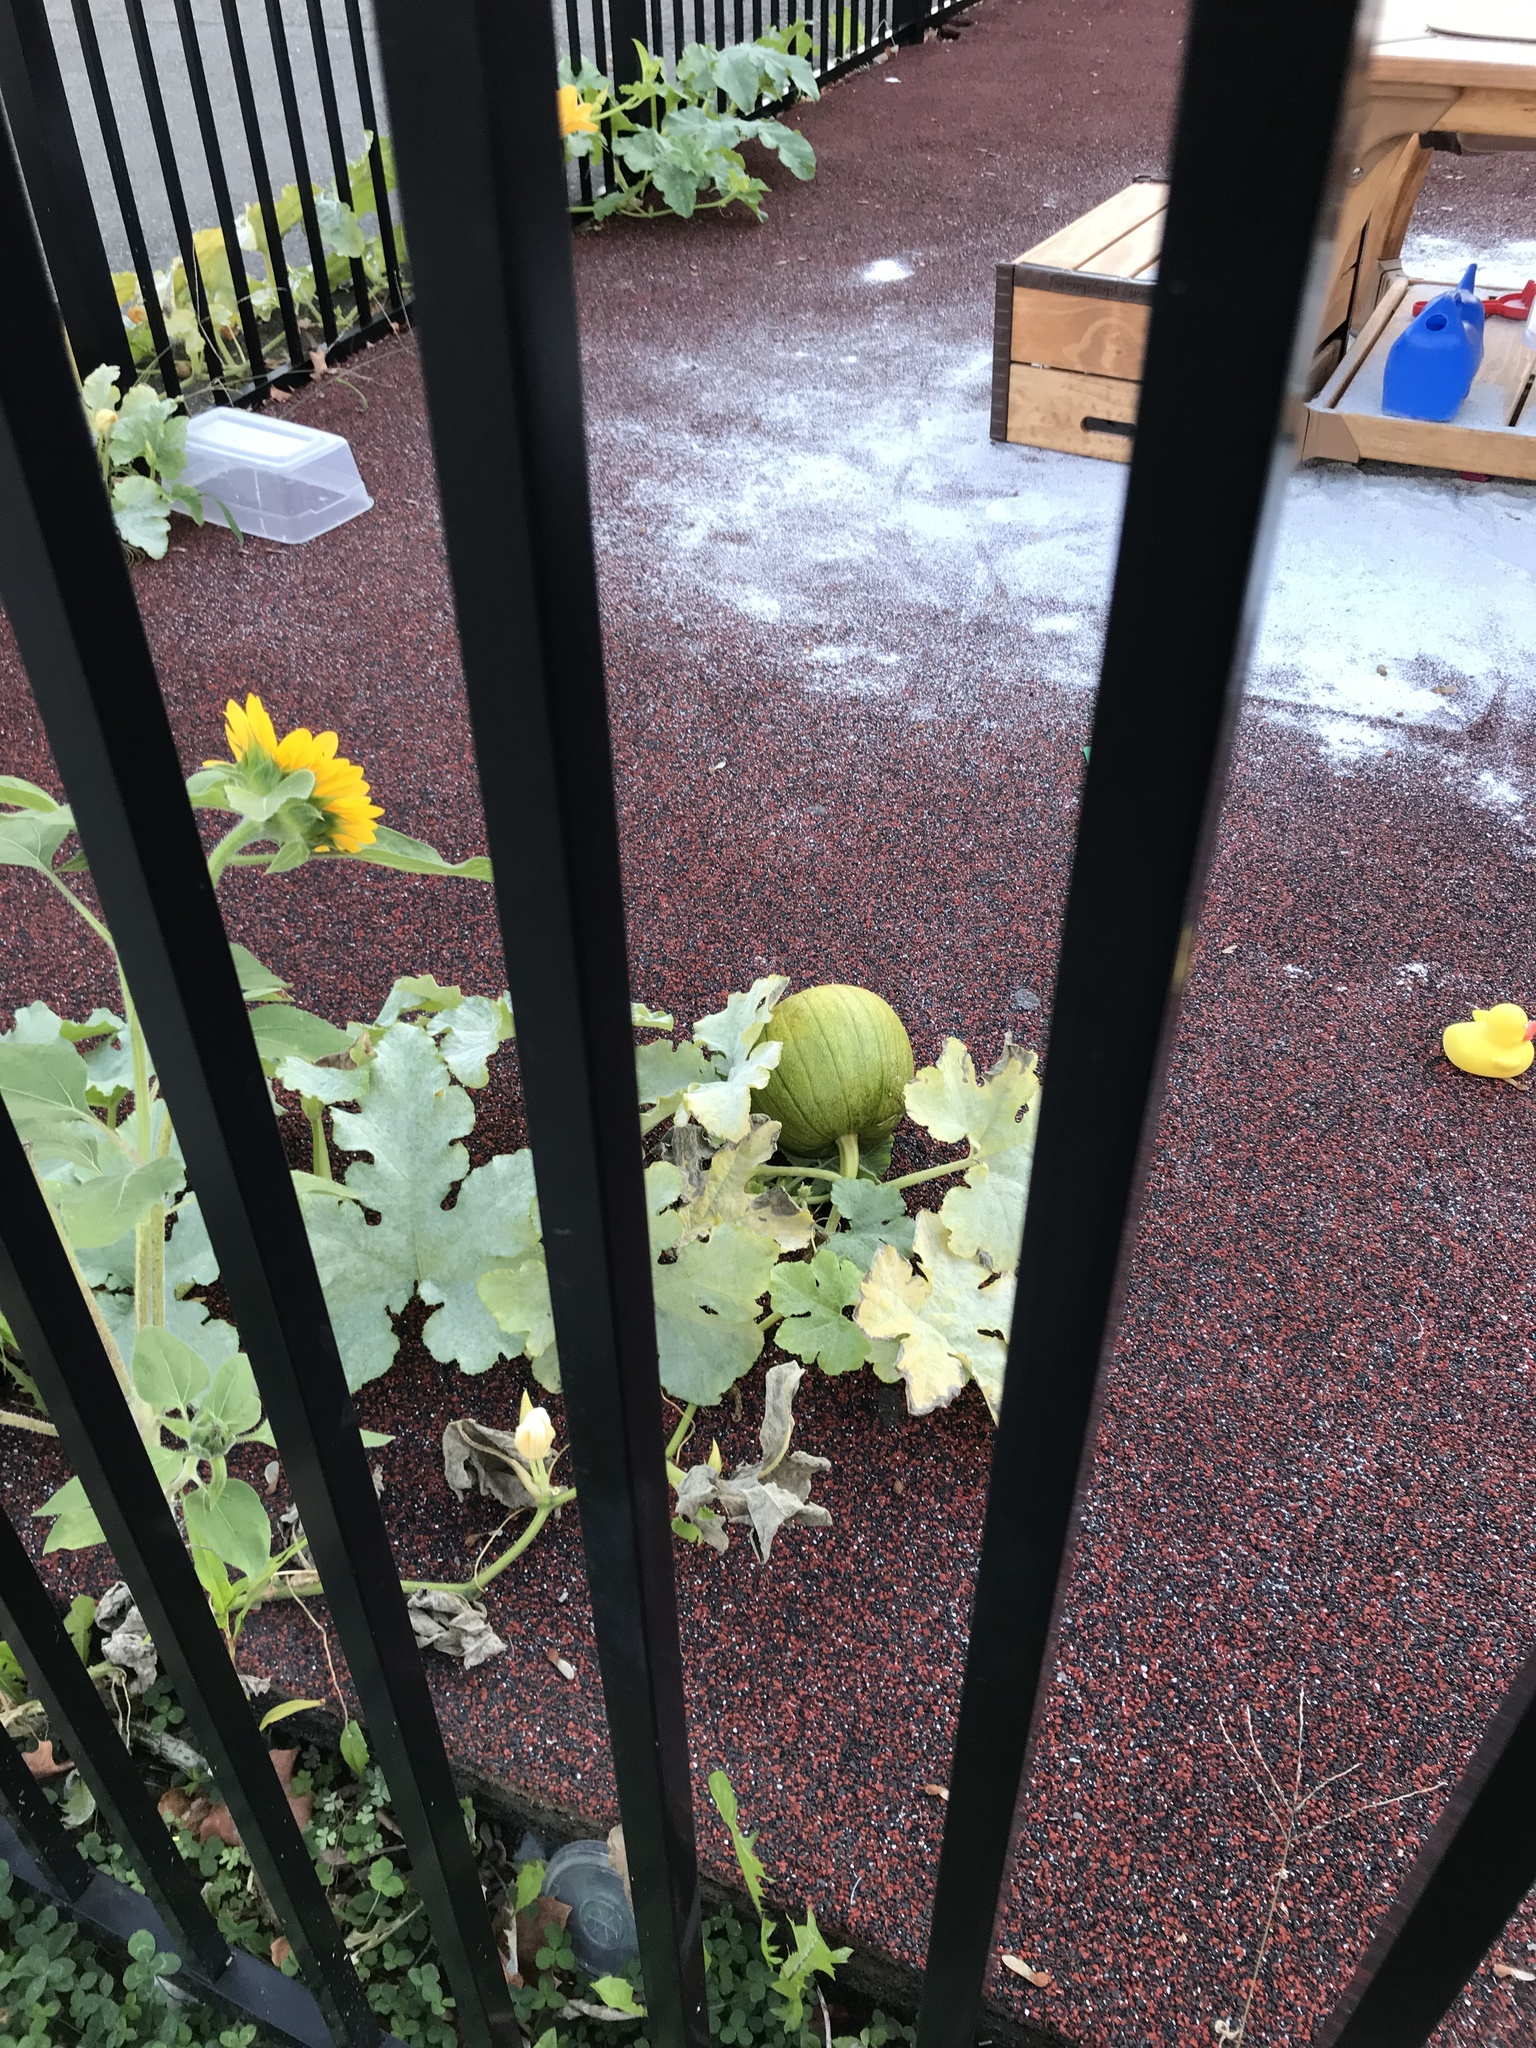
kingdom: Plantae
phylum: Tracheophyta
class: Magnoliopsida
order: Cucurbitales
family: Cucurbitaceae
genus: Cucurbita
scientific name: Cucurbita pepo
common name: Marrow
